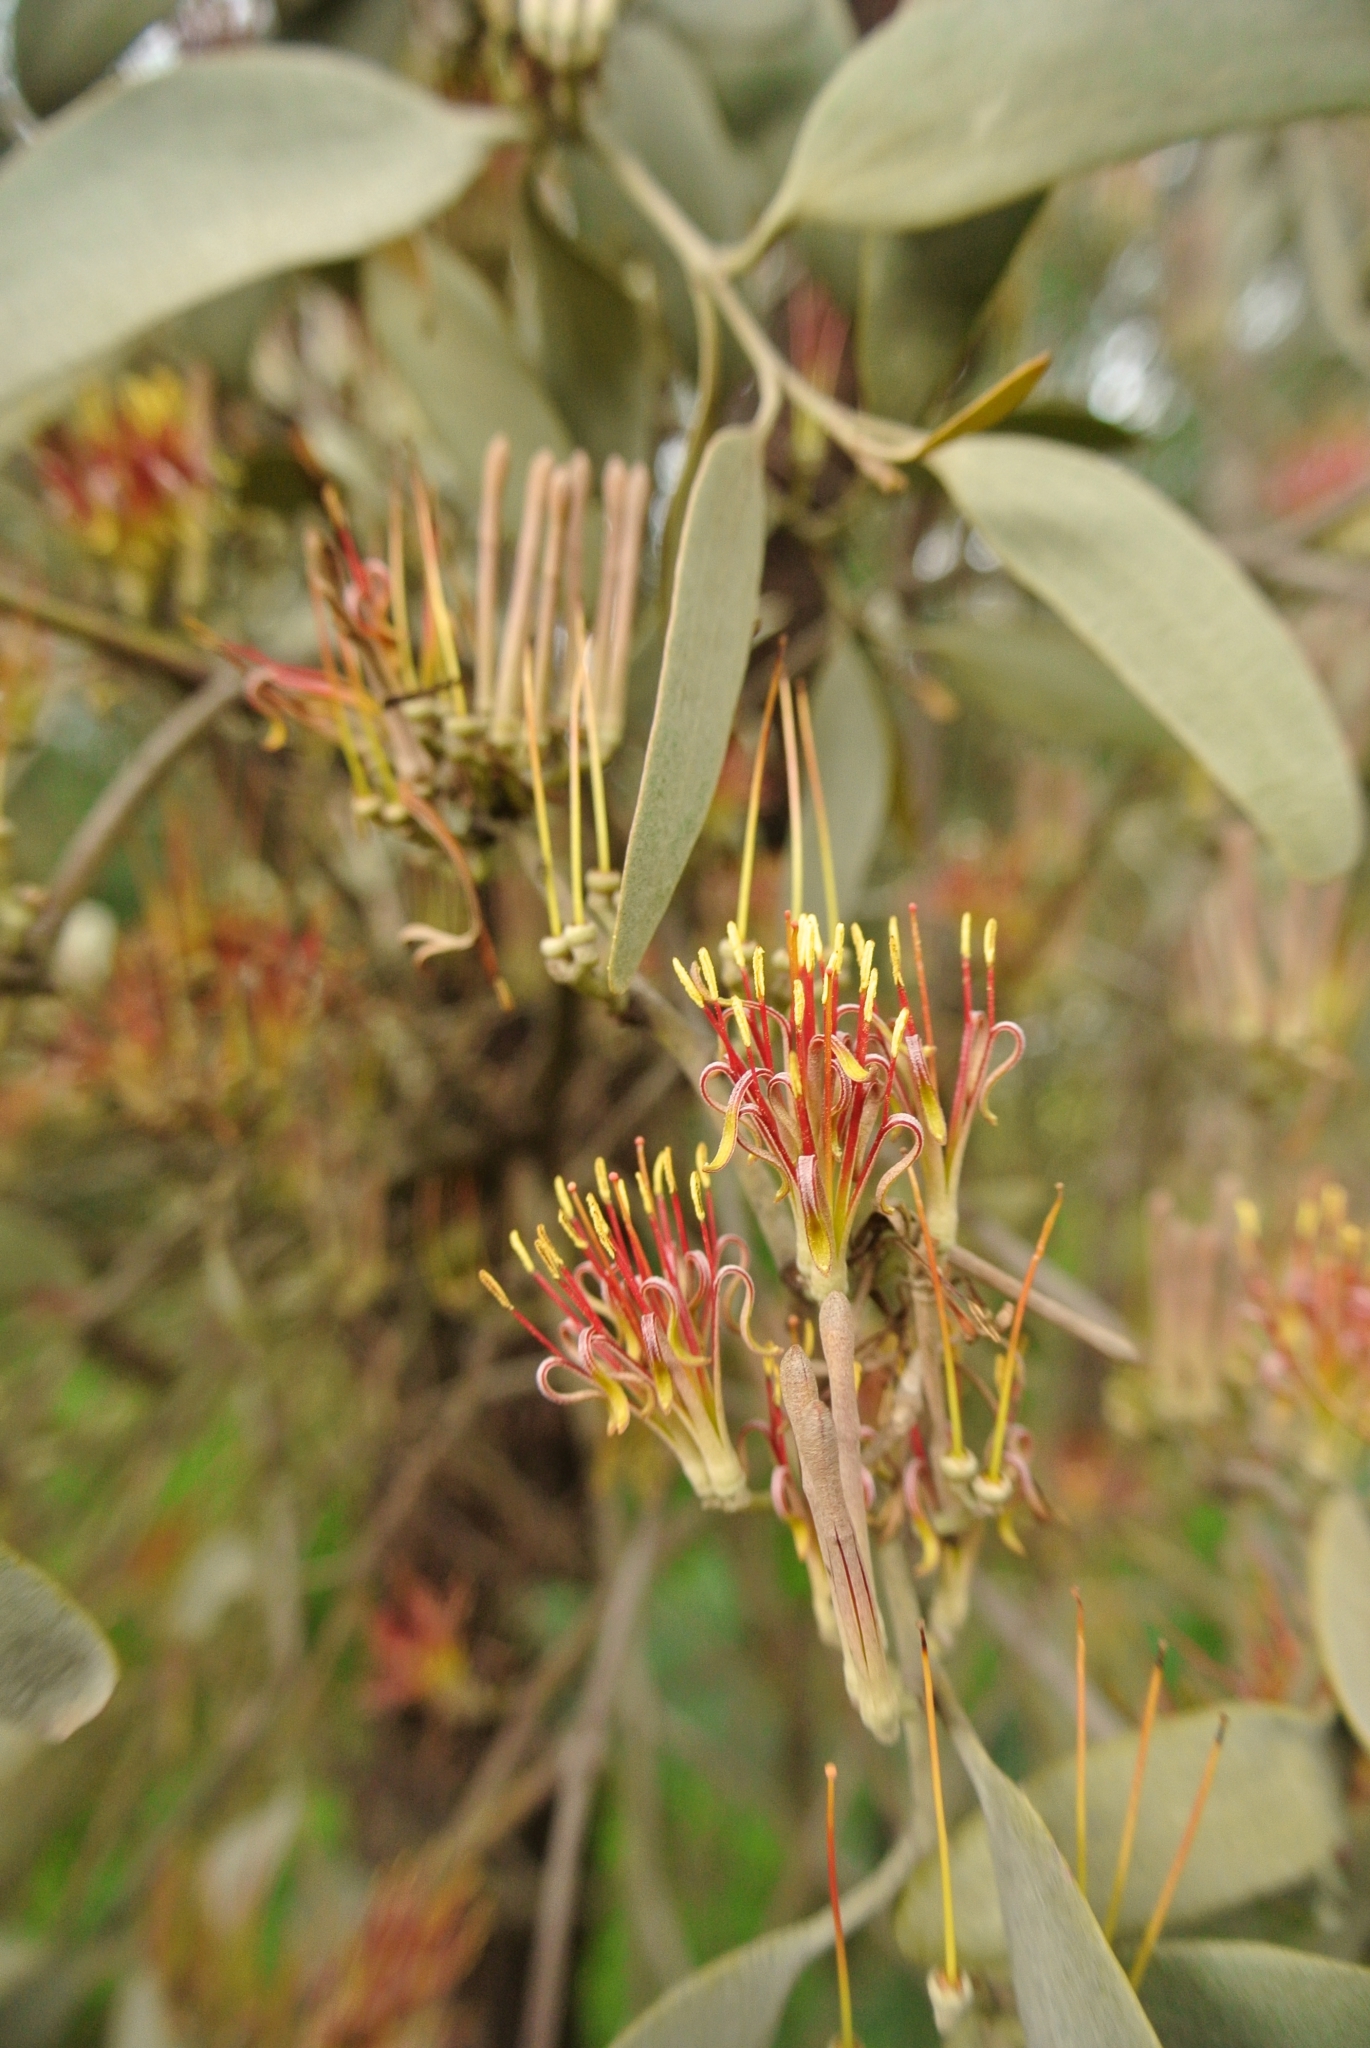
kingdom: Plantae
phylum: Tracheophyta
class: Magnoliopsida
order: Santalales
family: Loranthaceae
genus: Amyema
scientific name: Amyema quandang
